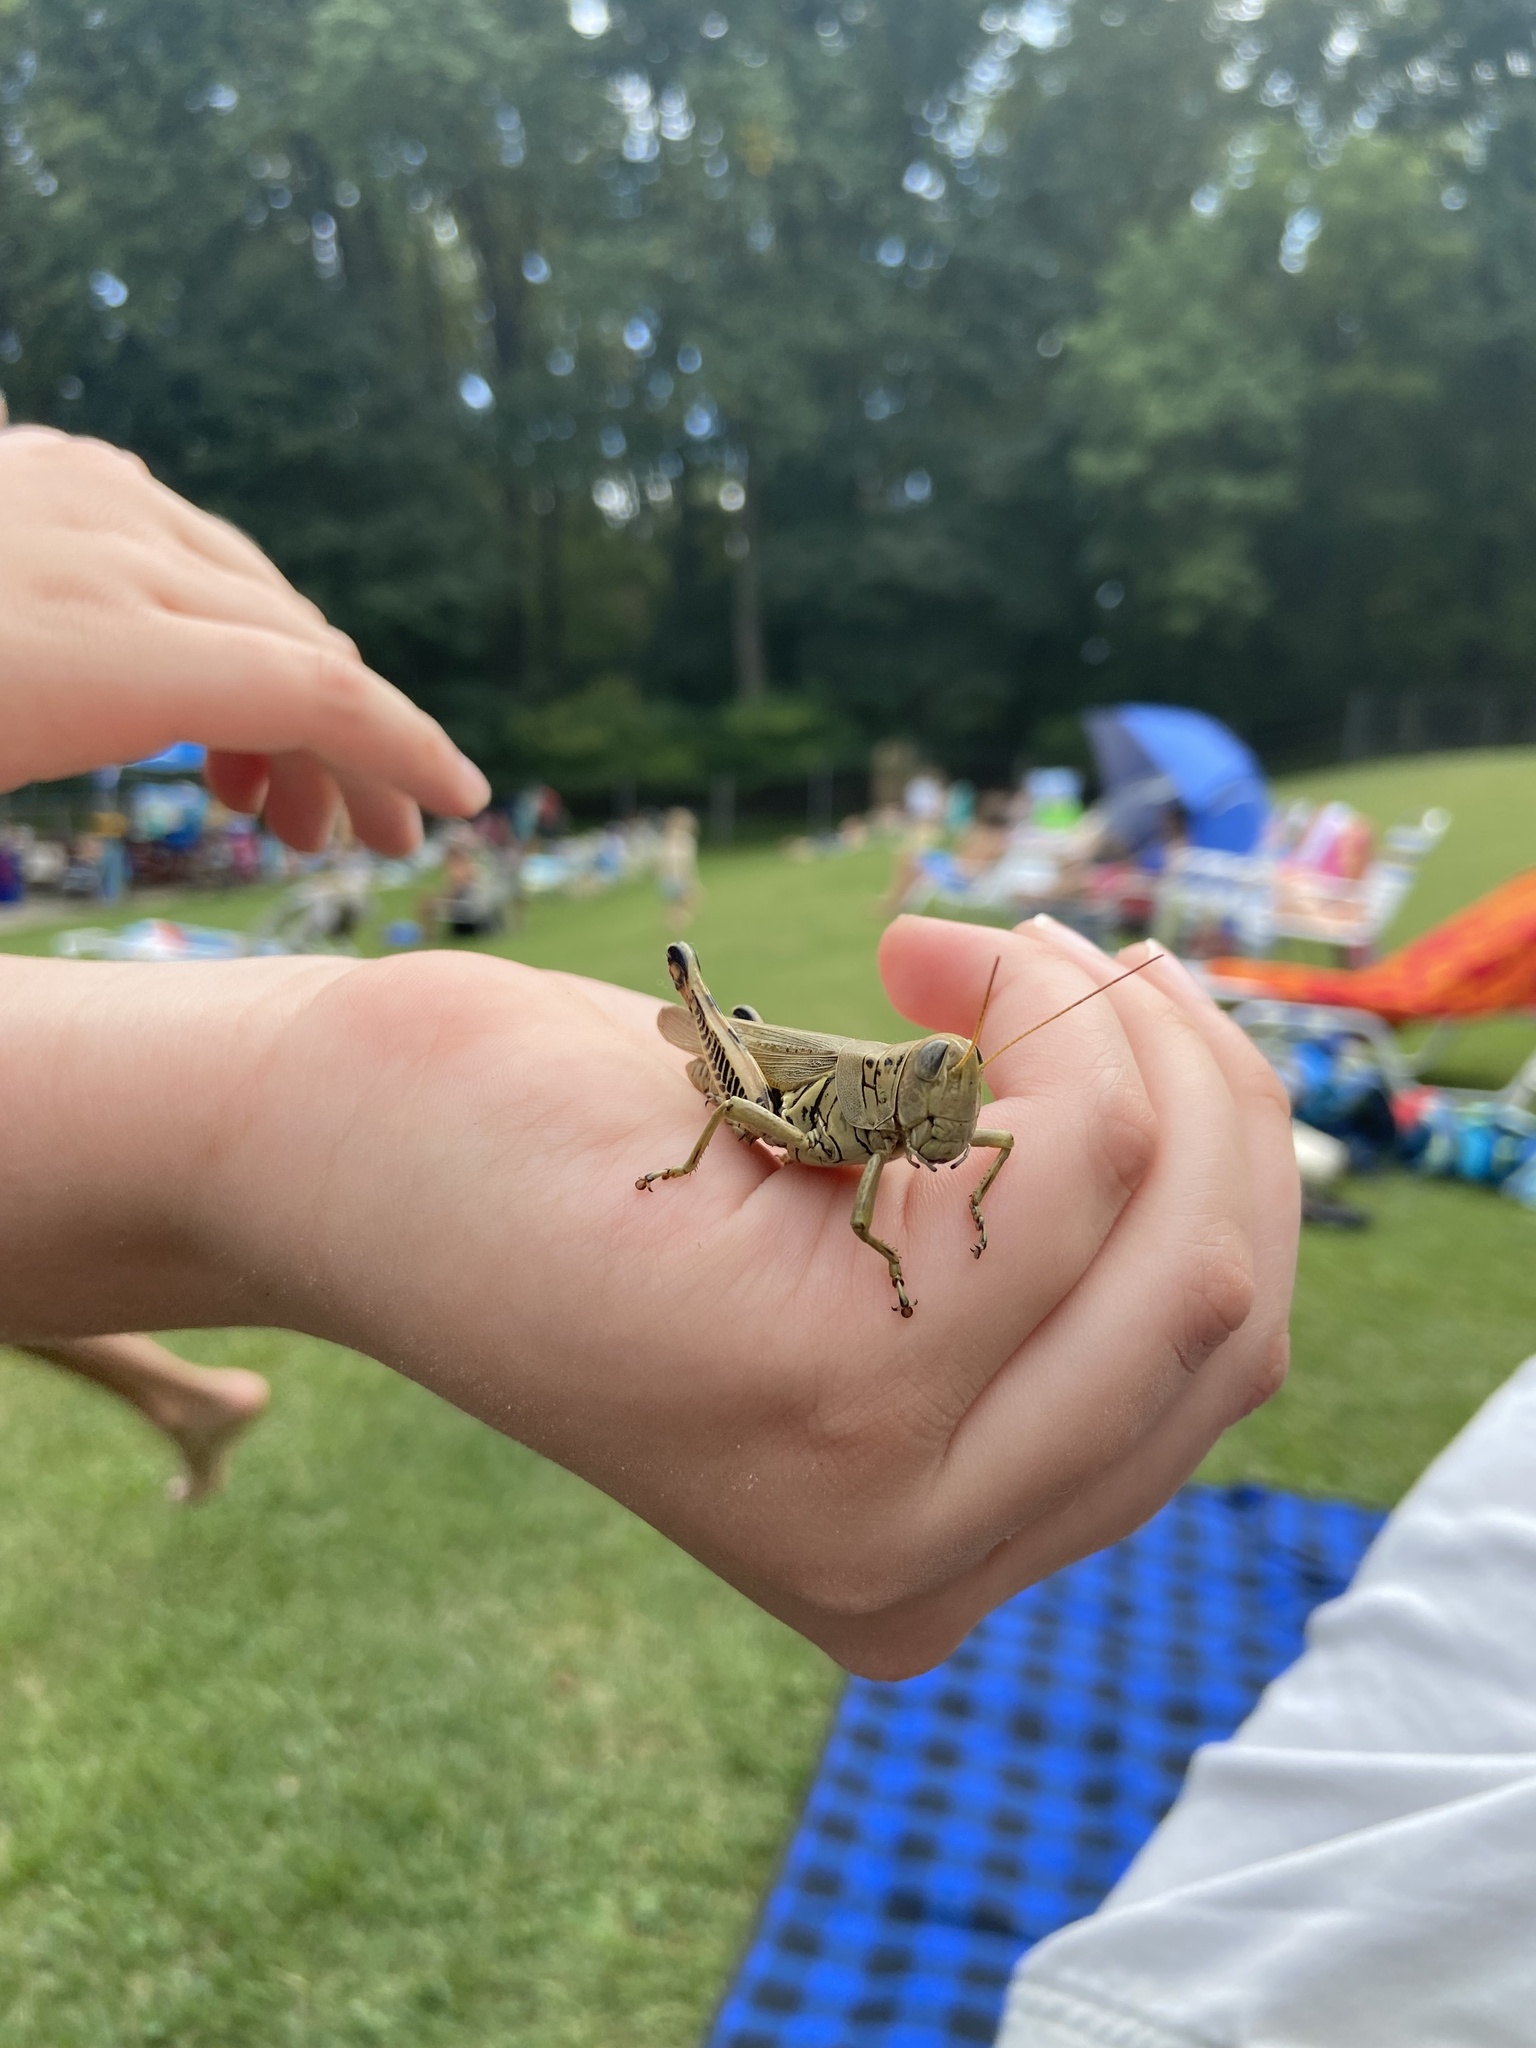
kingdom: Animalia
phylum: Arthropoda
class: Insecta
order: Orthoptera
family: Acrididae
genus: Melanoplus
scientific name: Melanoplus differentialis
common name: Differential grasshopper
